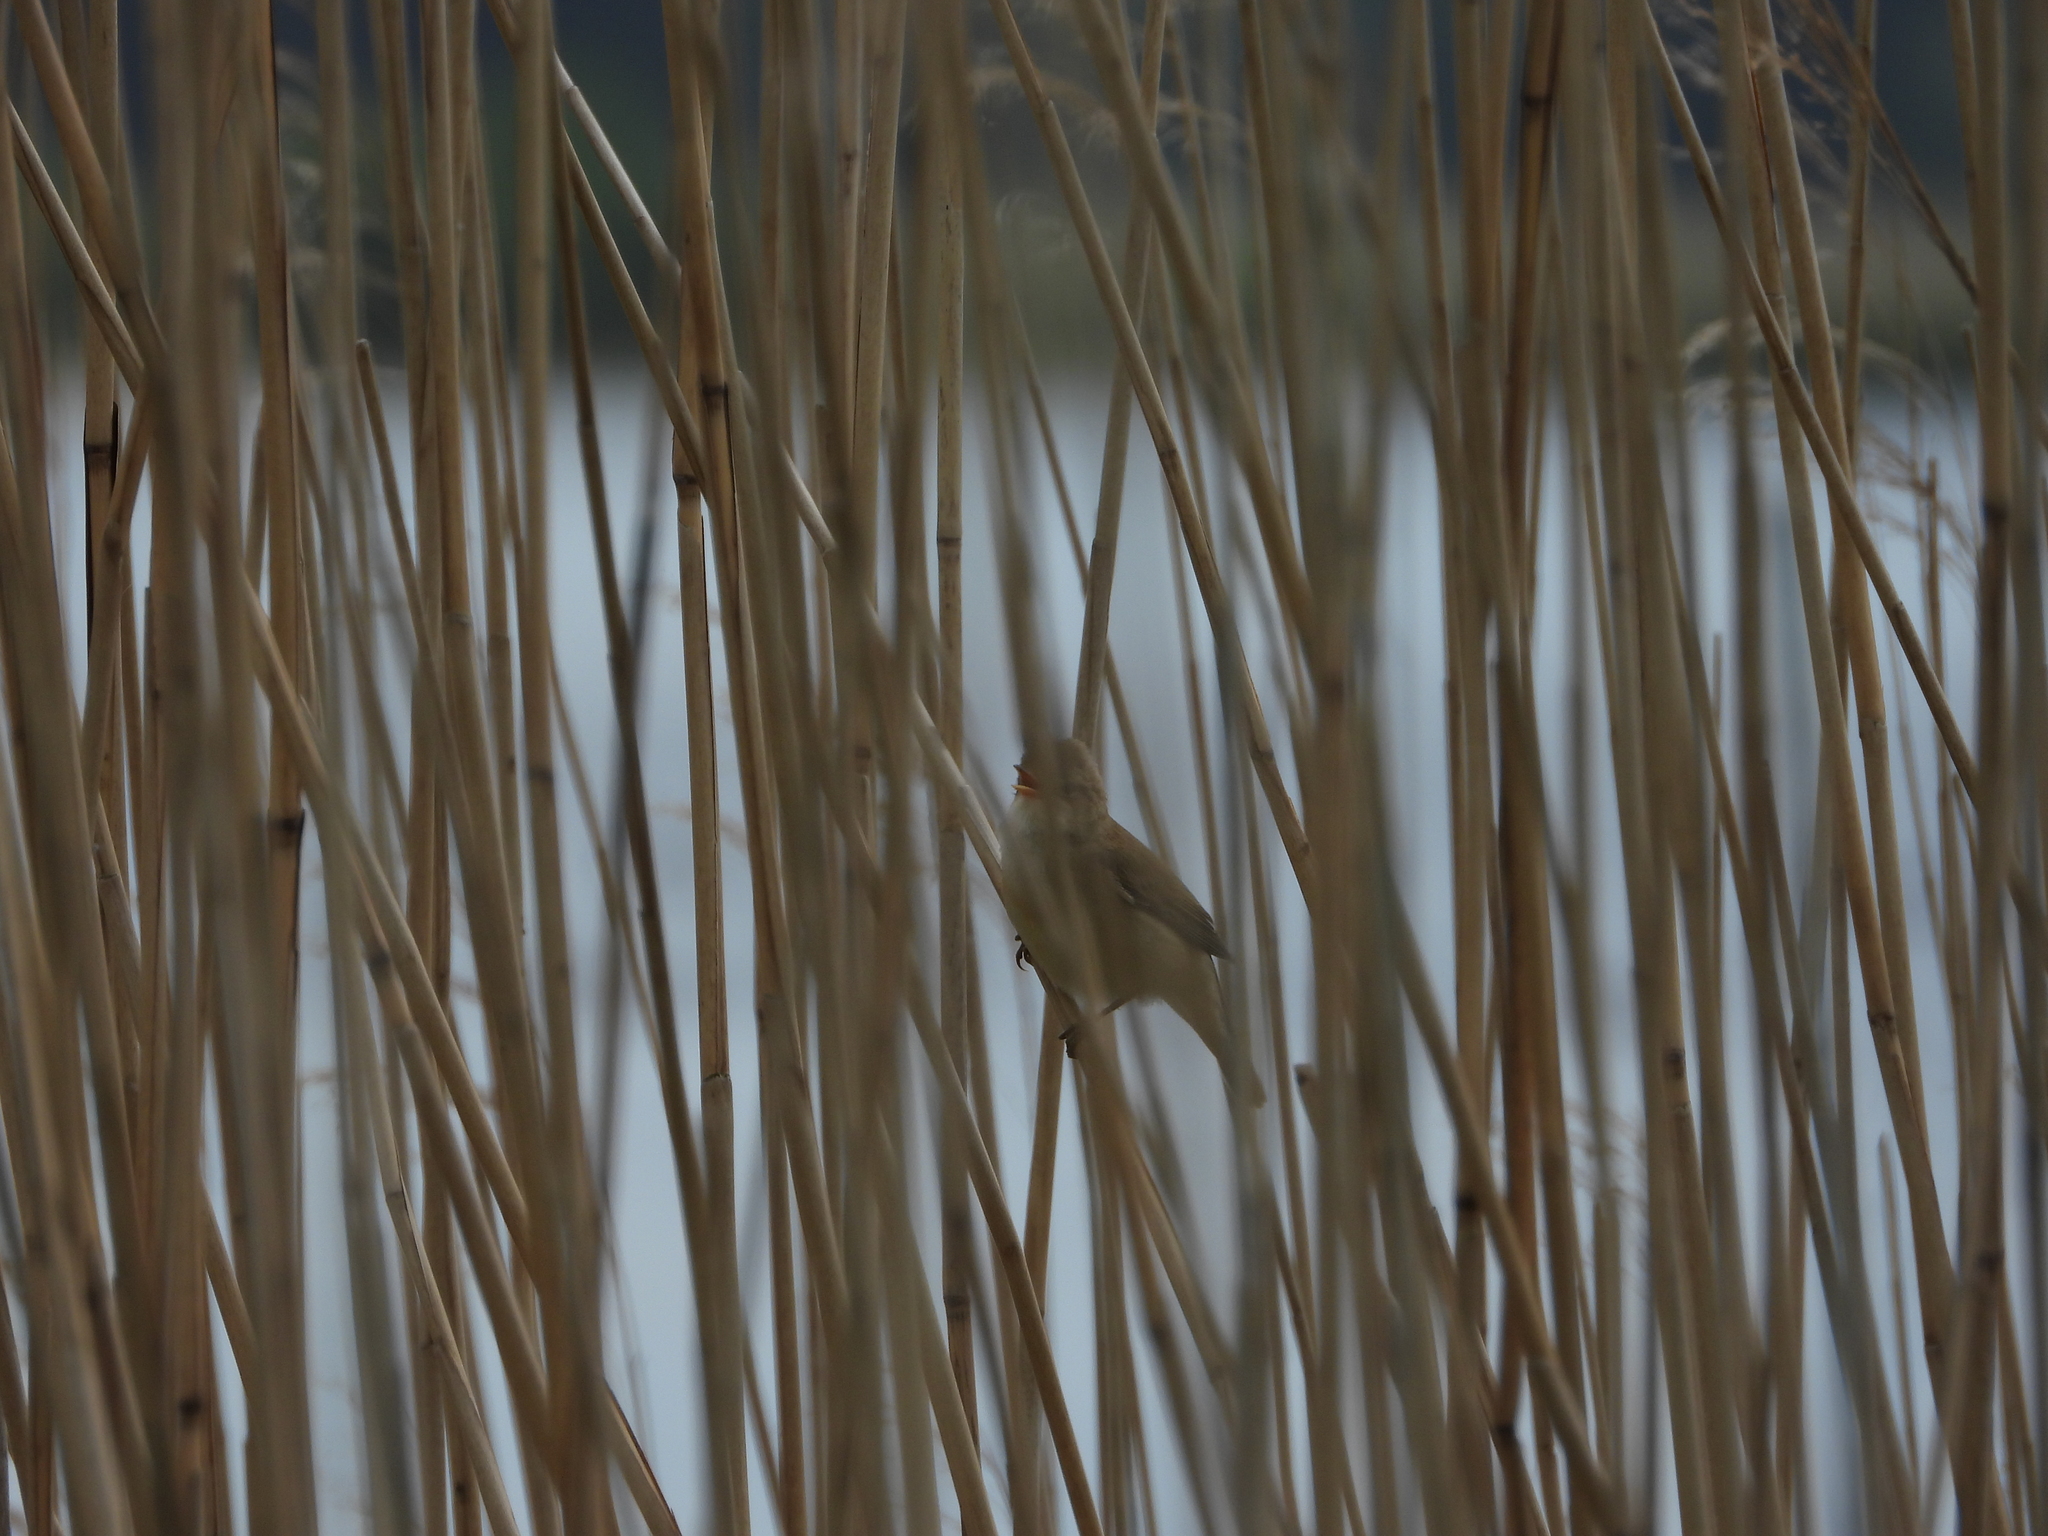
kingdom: Animalia
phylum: Chordata
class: Aves
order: Passeriformes
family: Acrocephalidae
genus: Acrocephalus
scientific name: Acrocephalus scirpaceus
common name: Eurasian reed warbler
